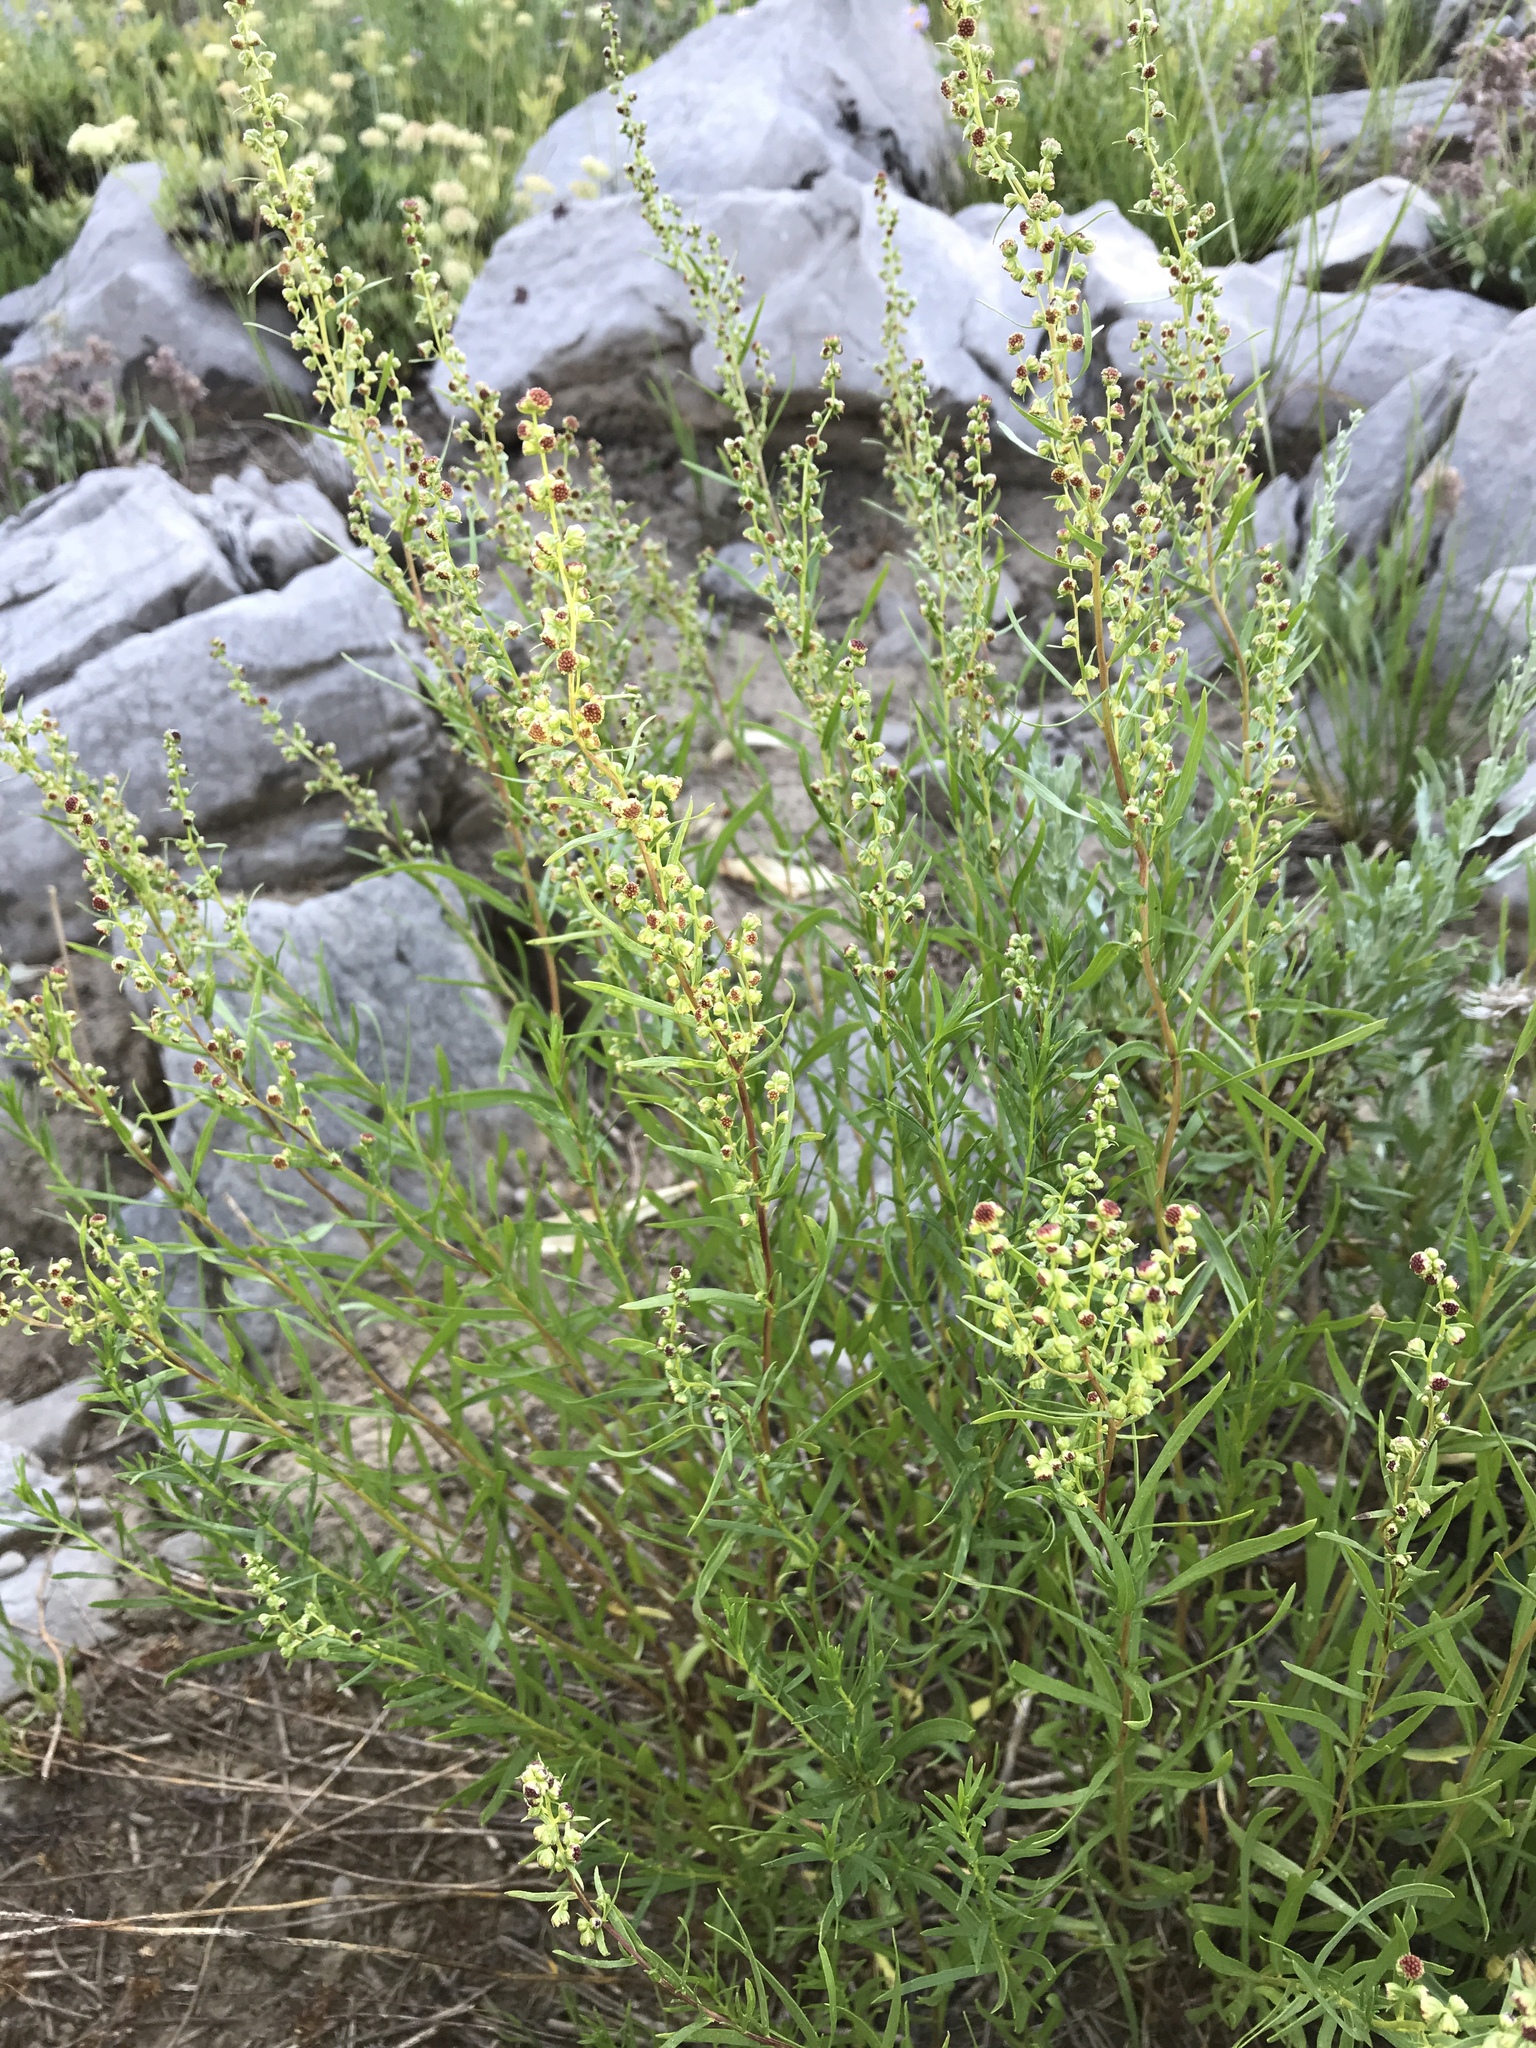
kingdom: Plantae
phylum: Tracheophyta
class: Magnoliopsida
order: Asterales
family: Asteraceae
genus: Artemisia
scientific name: Artemisia dracunculus
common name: Tarragon
